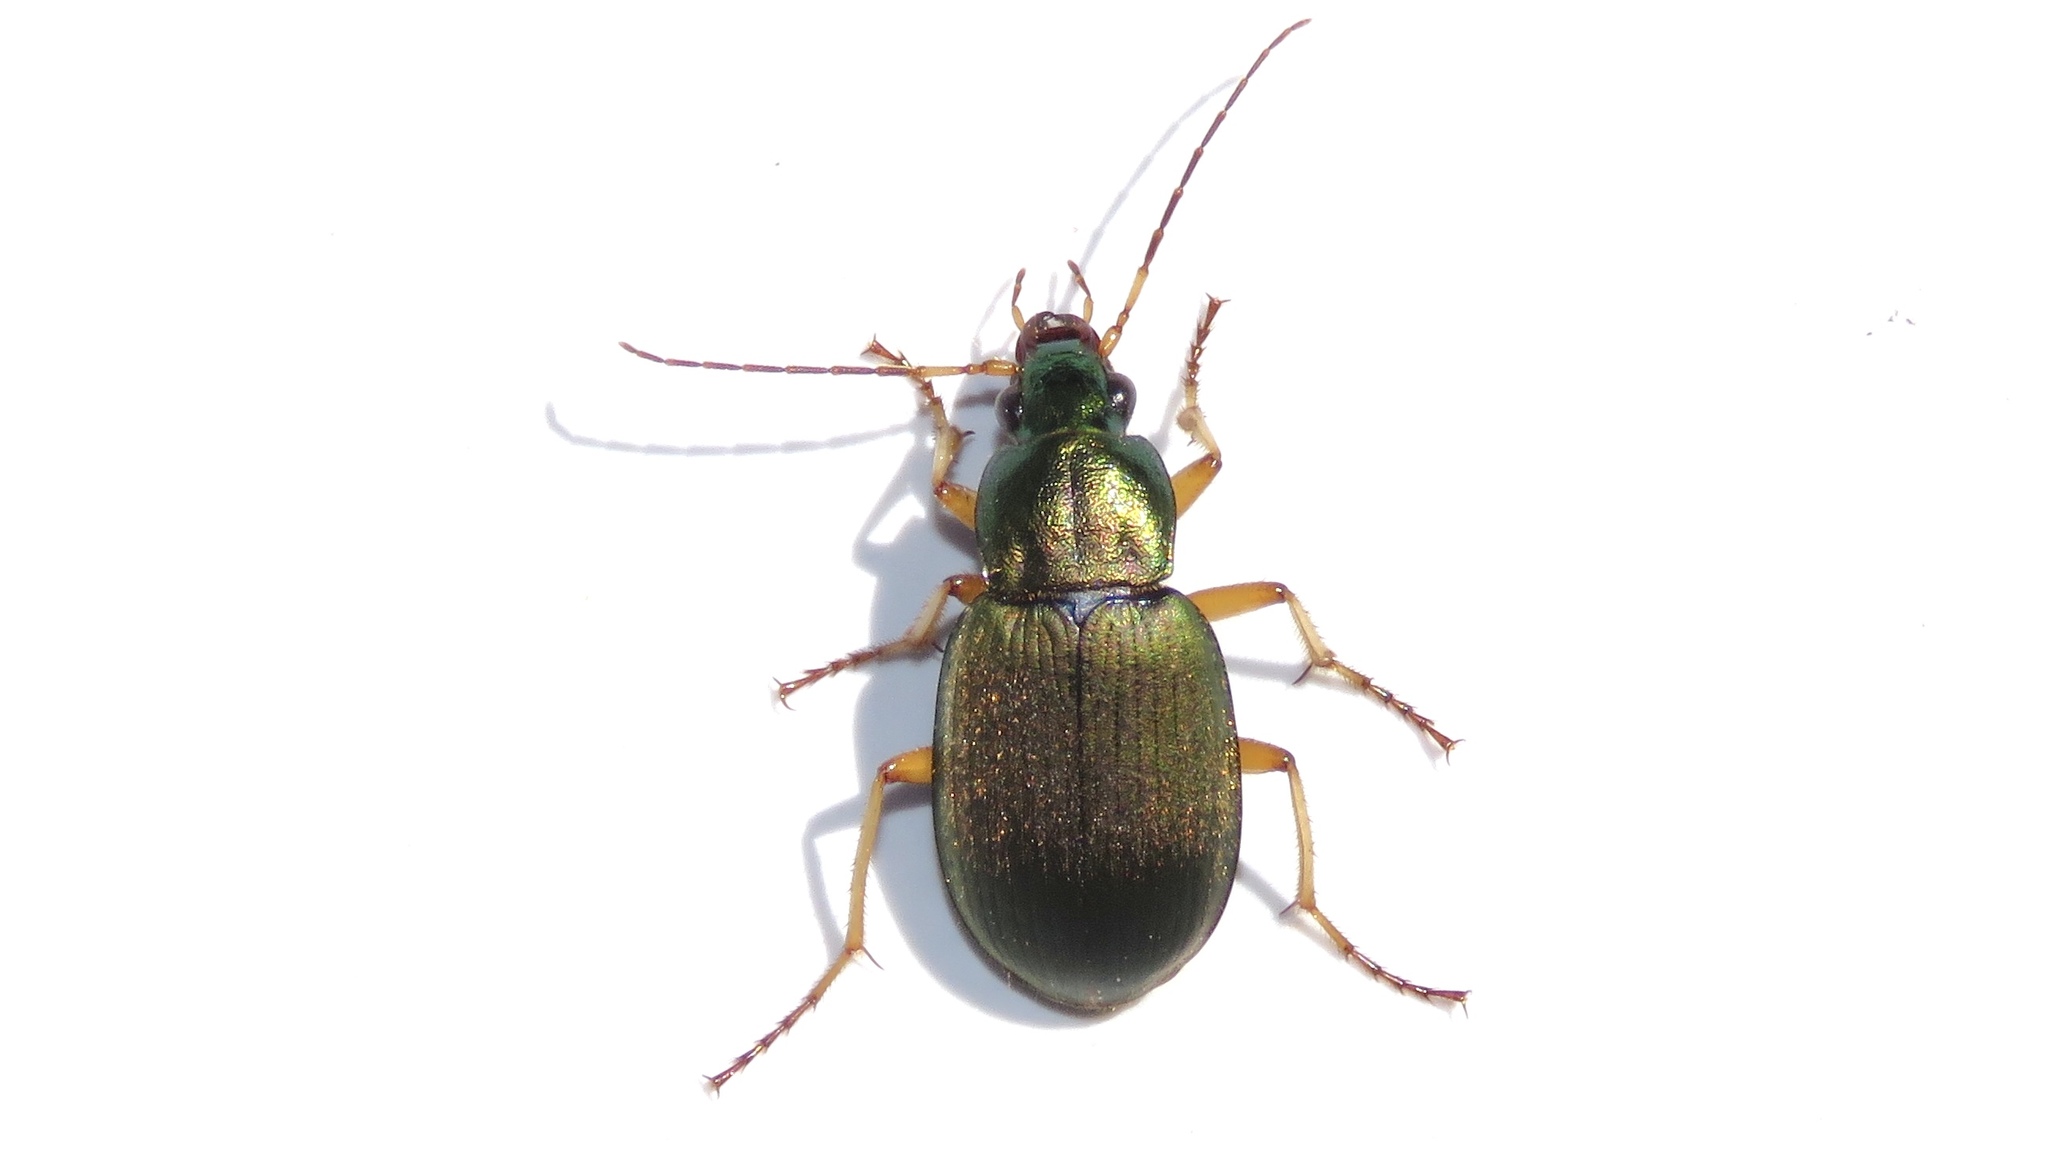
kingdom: Animalia
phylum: Arthropoda
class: Insecta
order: Coleoptera
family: Carabidae
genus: Chlaenius
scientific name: Chlaenius sericeus
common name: Green pubescent ground beetle
